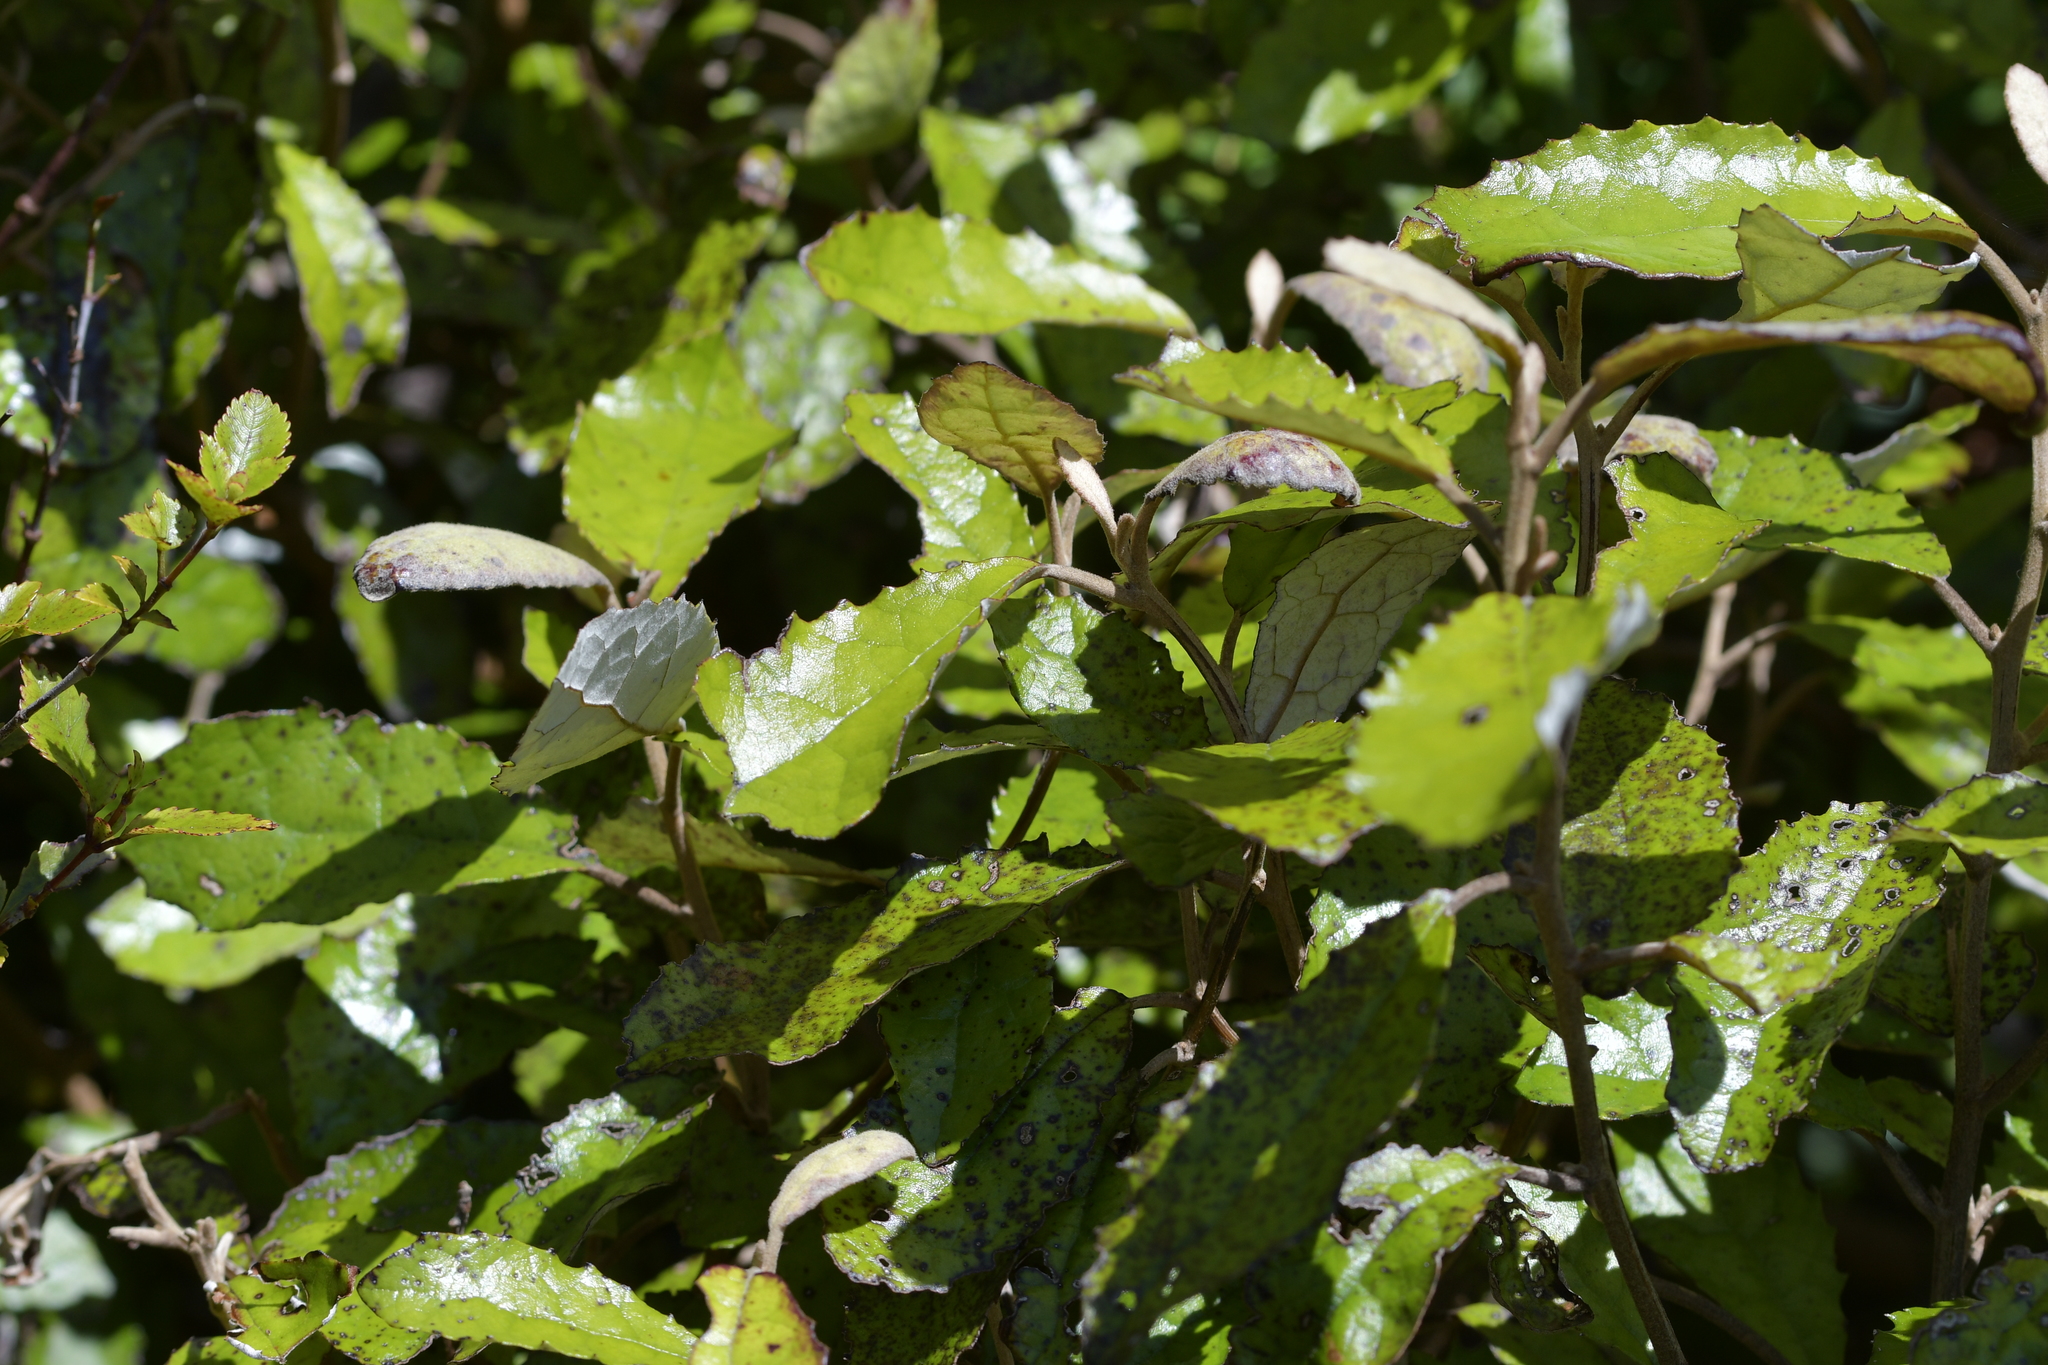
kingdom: Plantae
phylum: Tracheophyta
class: Magnoliopsida
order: Asterales
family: Asteraceae
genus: Olearia
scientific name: Olearia rani
